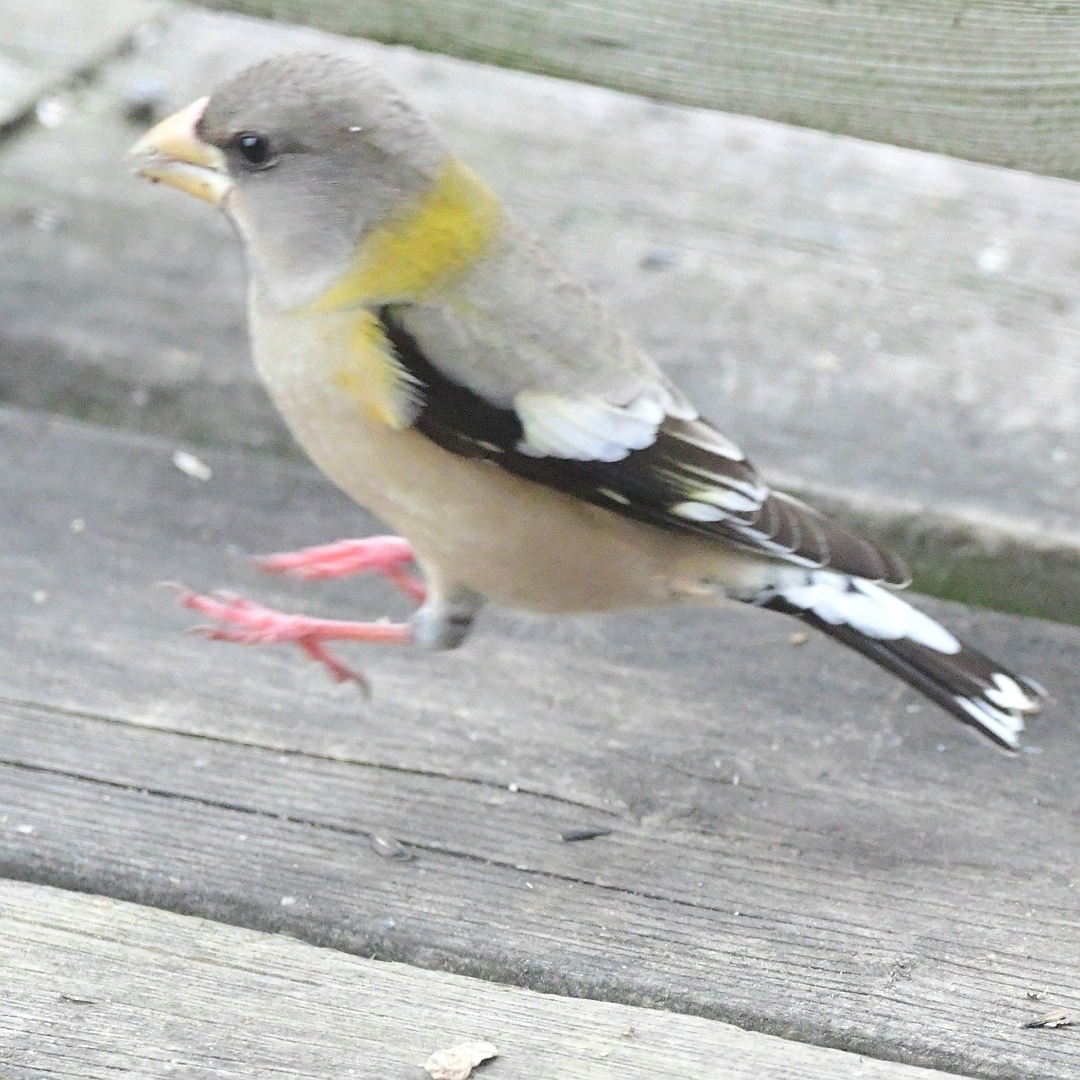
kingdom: Animalia
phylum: Chordata
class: Aves
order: Passeriformes
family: Fringillidae
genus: Hesperiphona
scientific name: Hesperiphona vespertina
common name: Evening grosbeak
